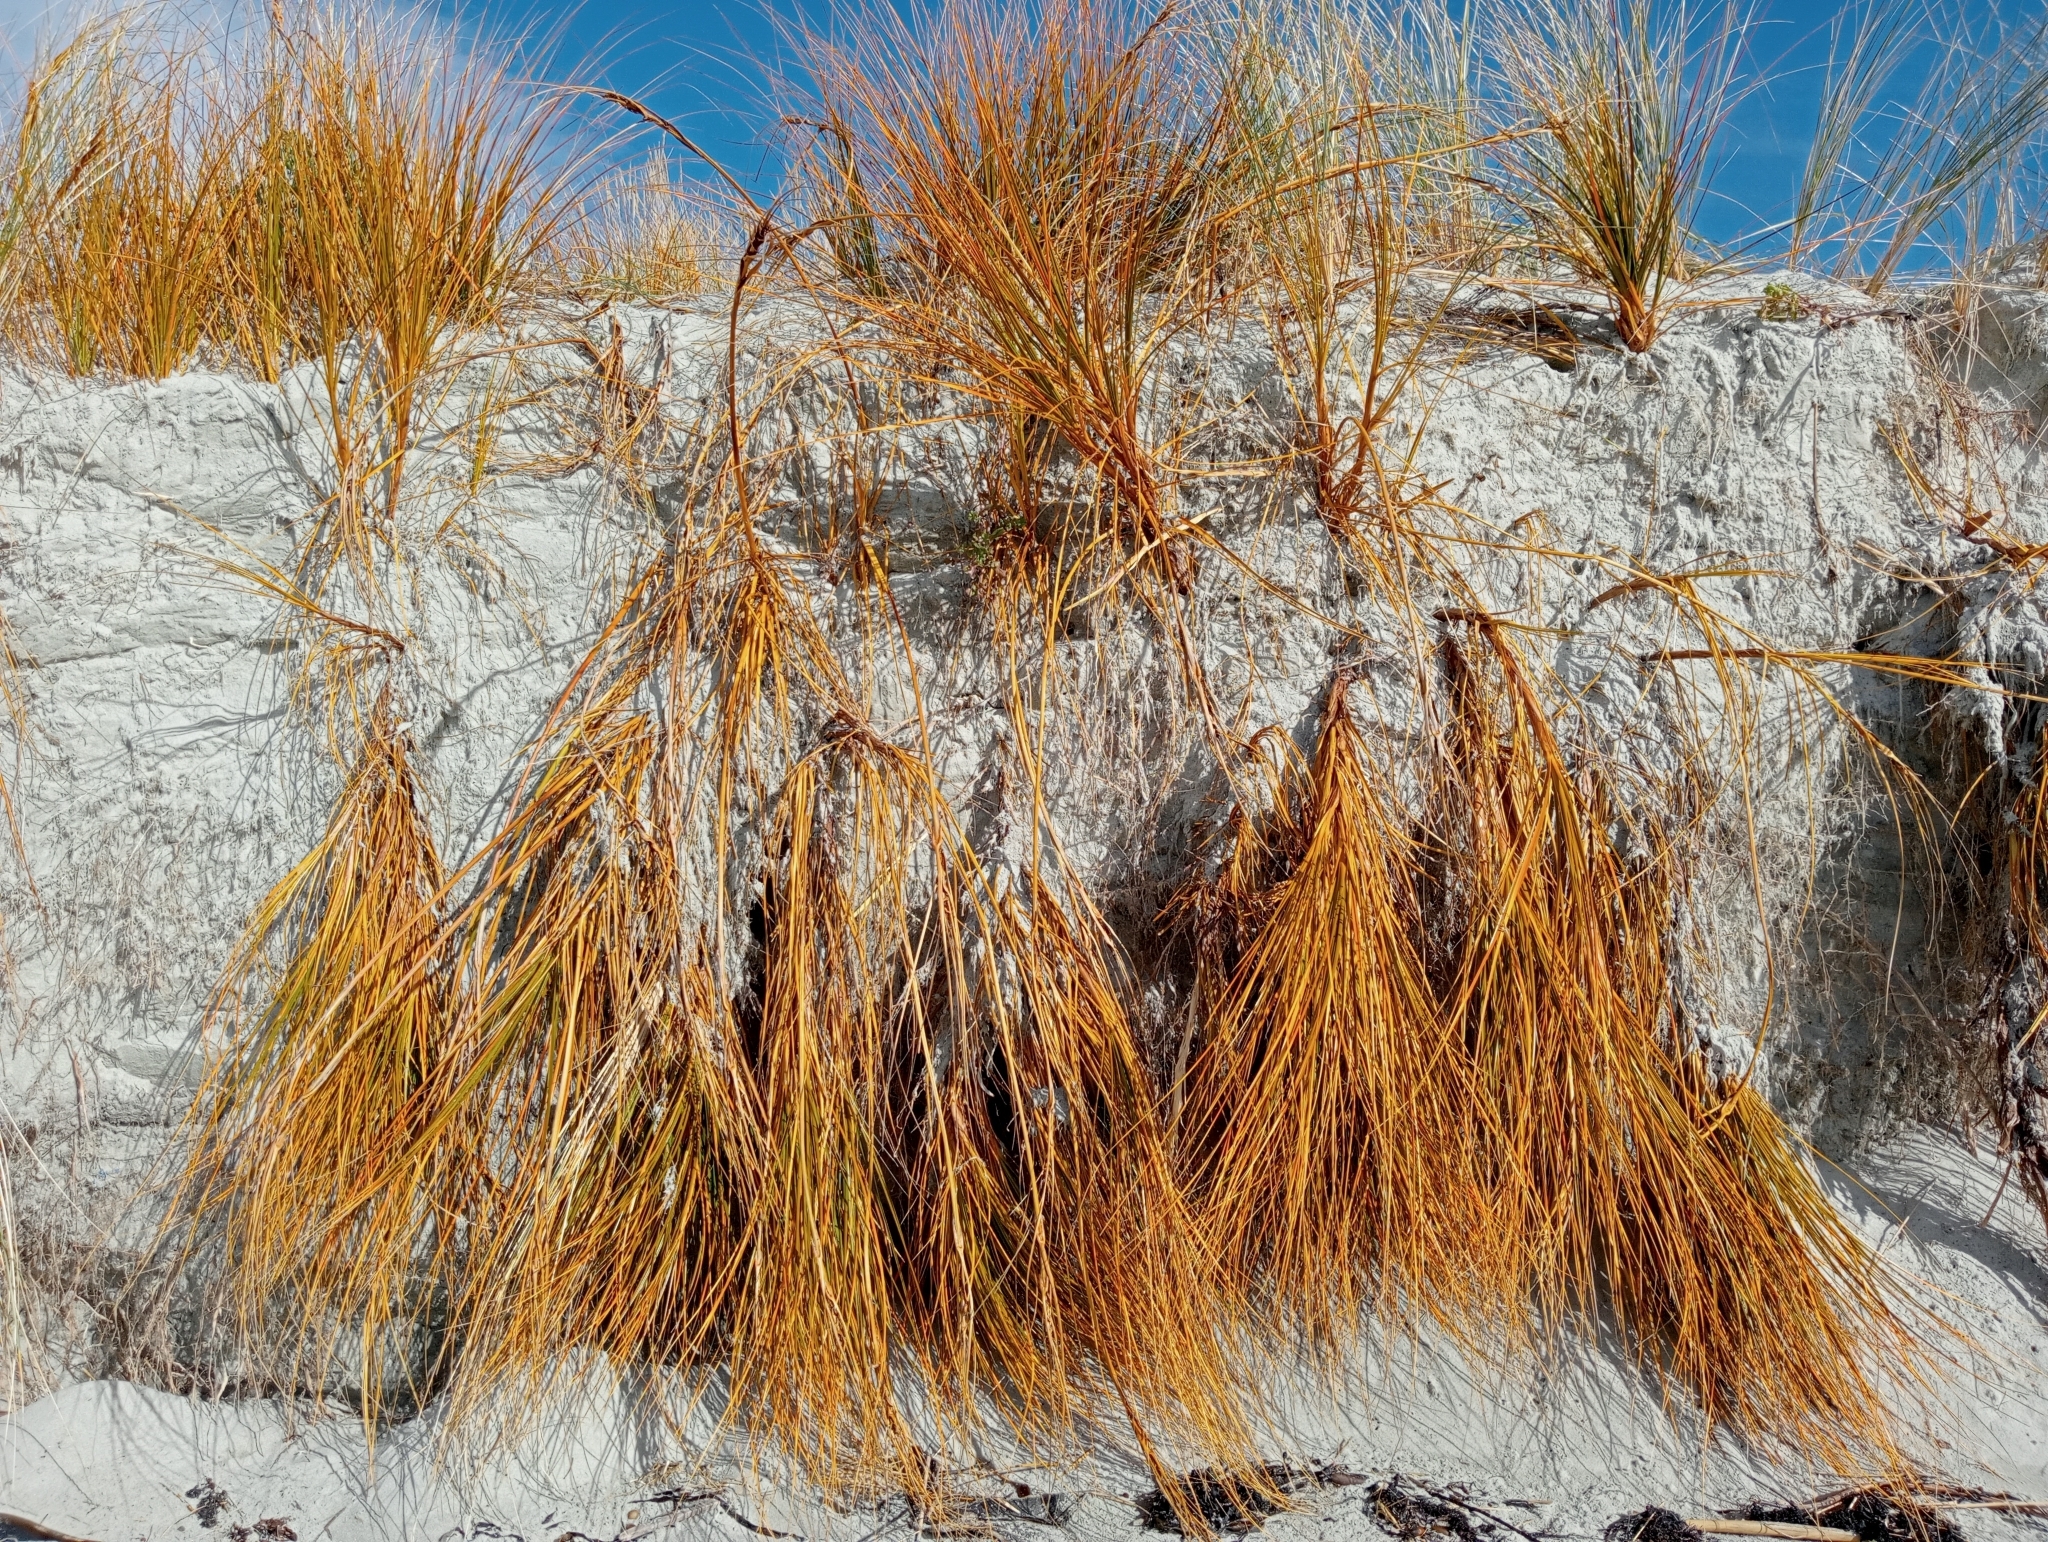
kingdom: Plantae
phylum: Tracheophyta
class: Liliopsida
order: Poales
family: Cyperaceae
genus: Ficinia
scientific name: Ficinia spiralis
